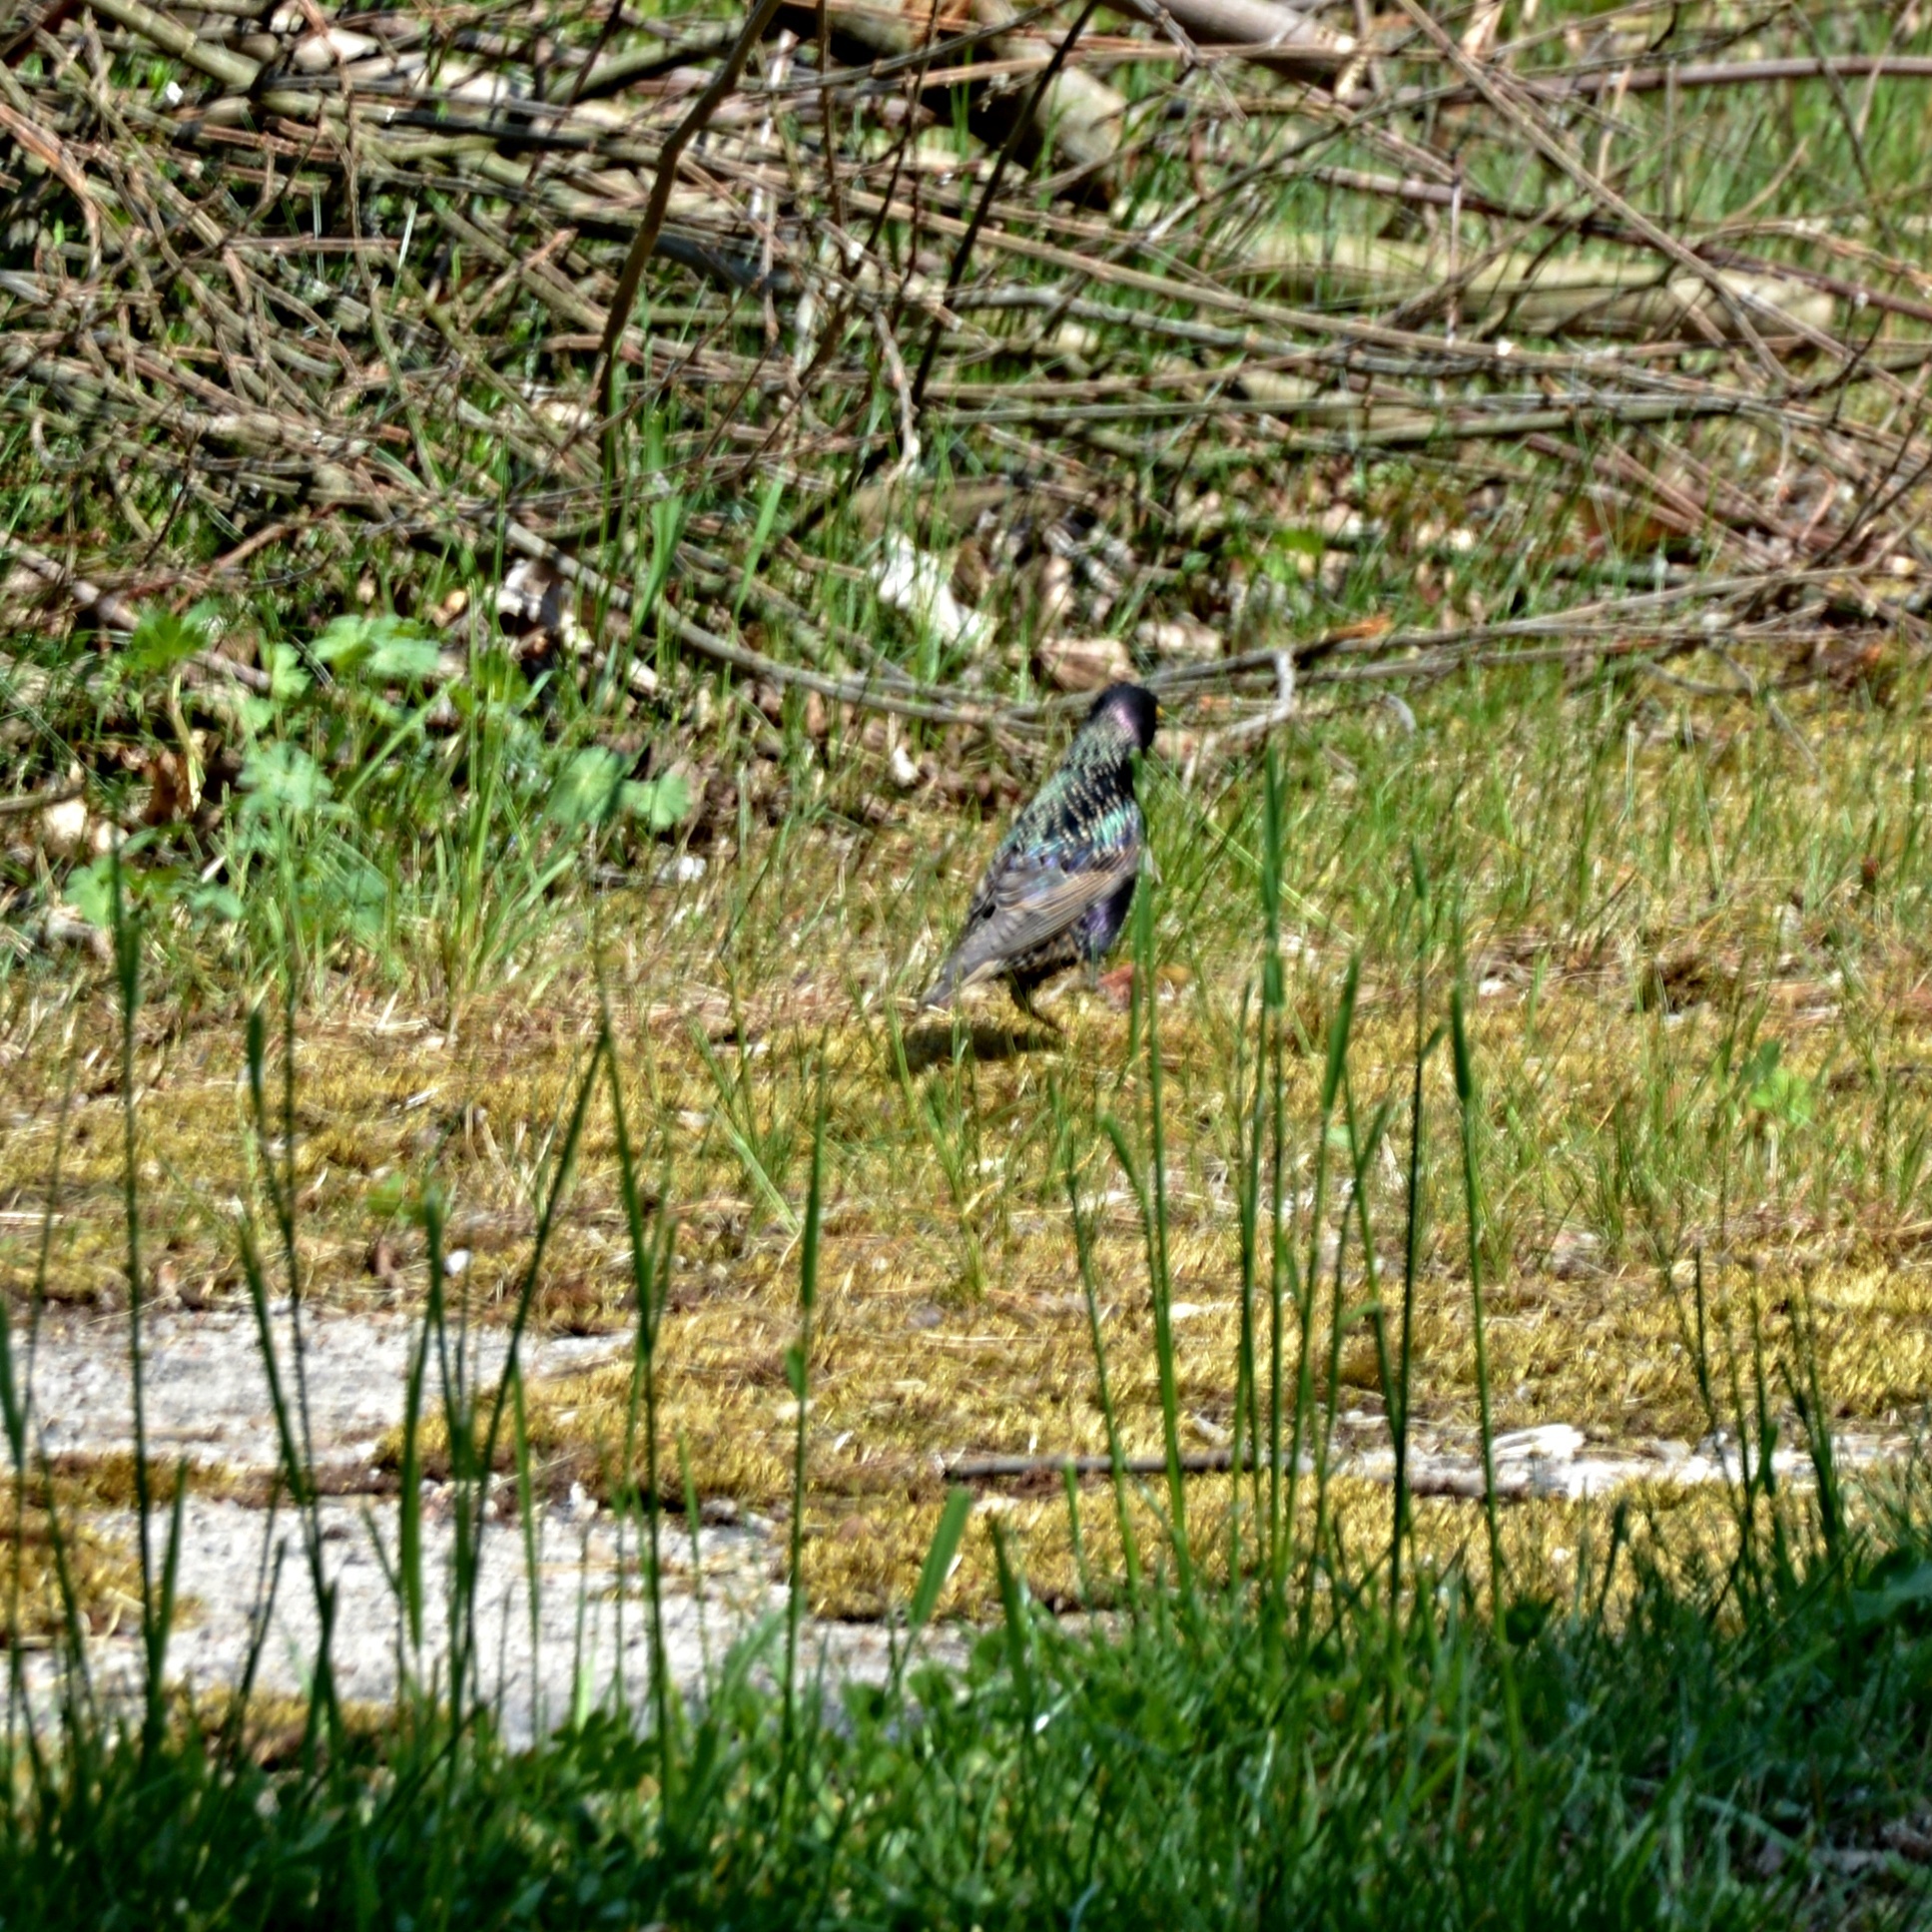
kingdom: Animalia
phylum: Chordata
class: Aves
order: Passeriformes
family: Sturnidae
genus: Sturnus
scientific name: Sturnus vulgaris
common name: Common starling
